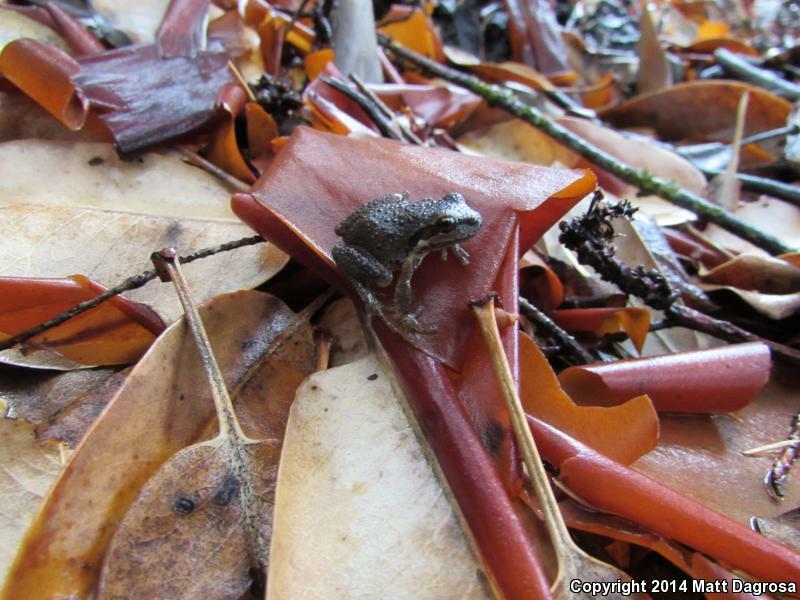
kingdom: Animalia
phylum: Chordata
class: Amphibia
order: Anura
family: Hylidae
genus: Pseudacris
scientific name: Pseudacris regilla
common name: Pacific chorus frog
